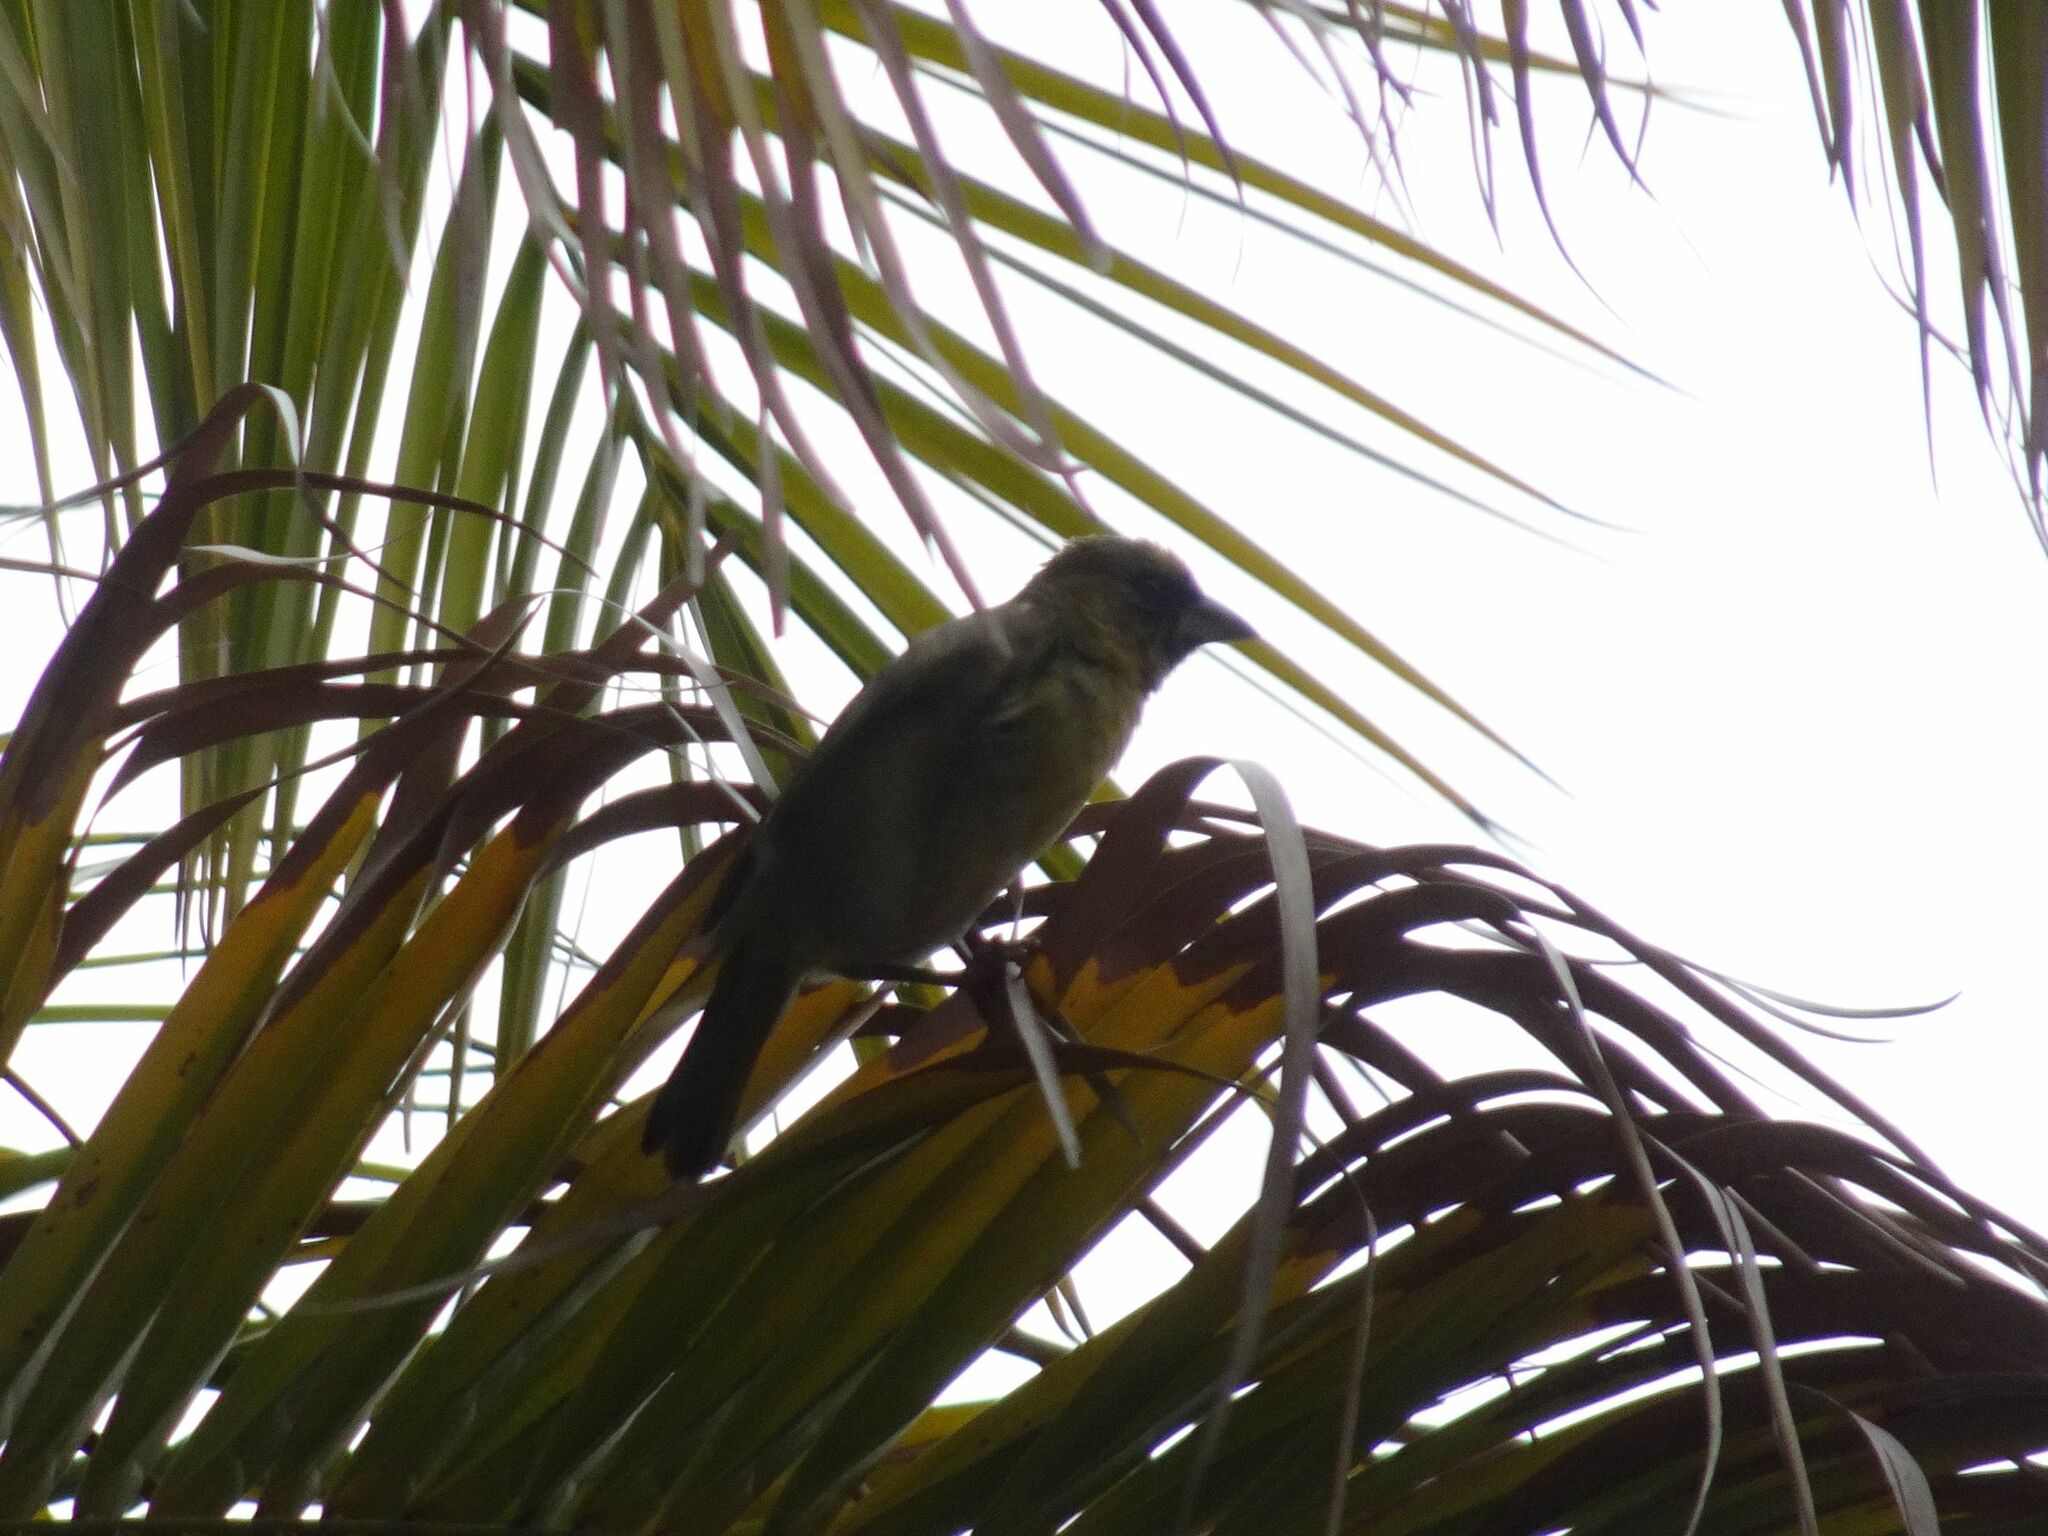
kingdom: Animalia
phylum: Chordata
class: Aves
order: Passeriformes
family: Ploceidae
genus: Ploceus
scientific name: Ploceus velatus
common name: Southern masked weaver
